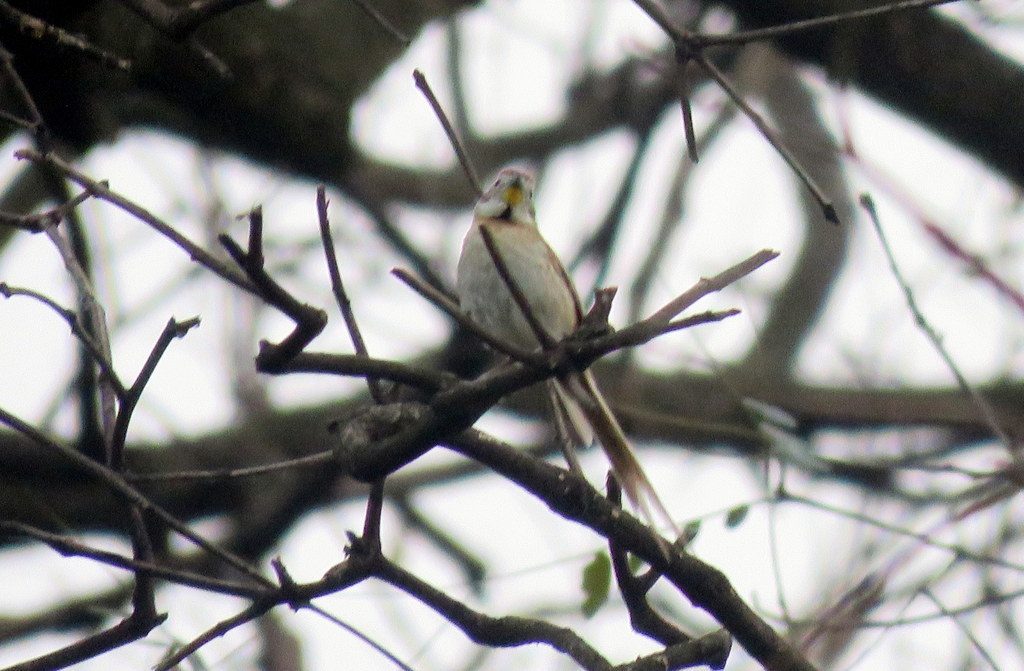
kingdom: Animalia
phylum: Chordata
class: Aves
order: Passeriformes
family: Furnariidae
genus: Schoeniophylax
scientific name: Schoeniophylax phryganophilus
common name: Chotoy spinetail
